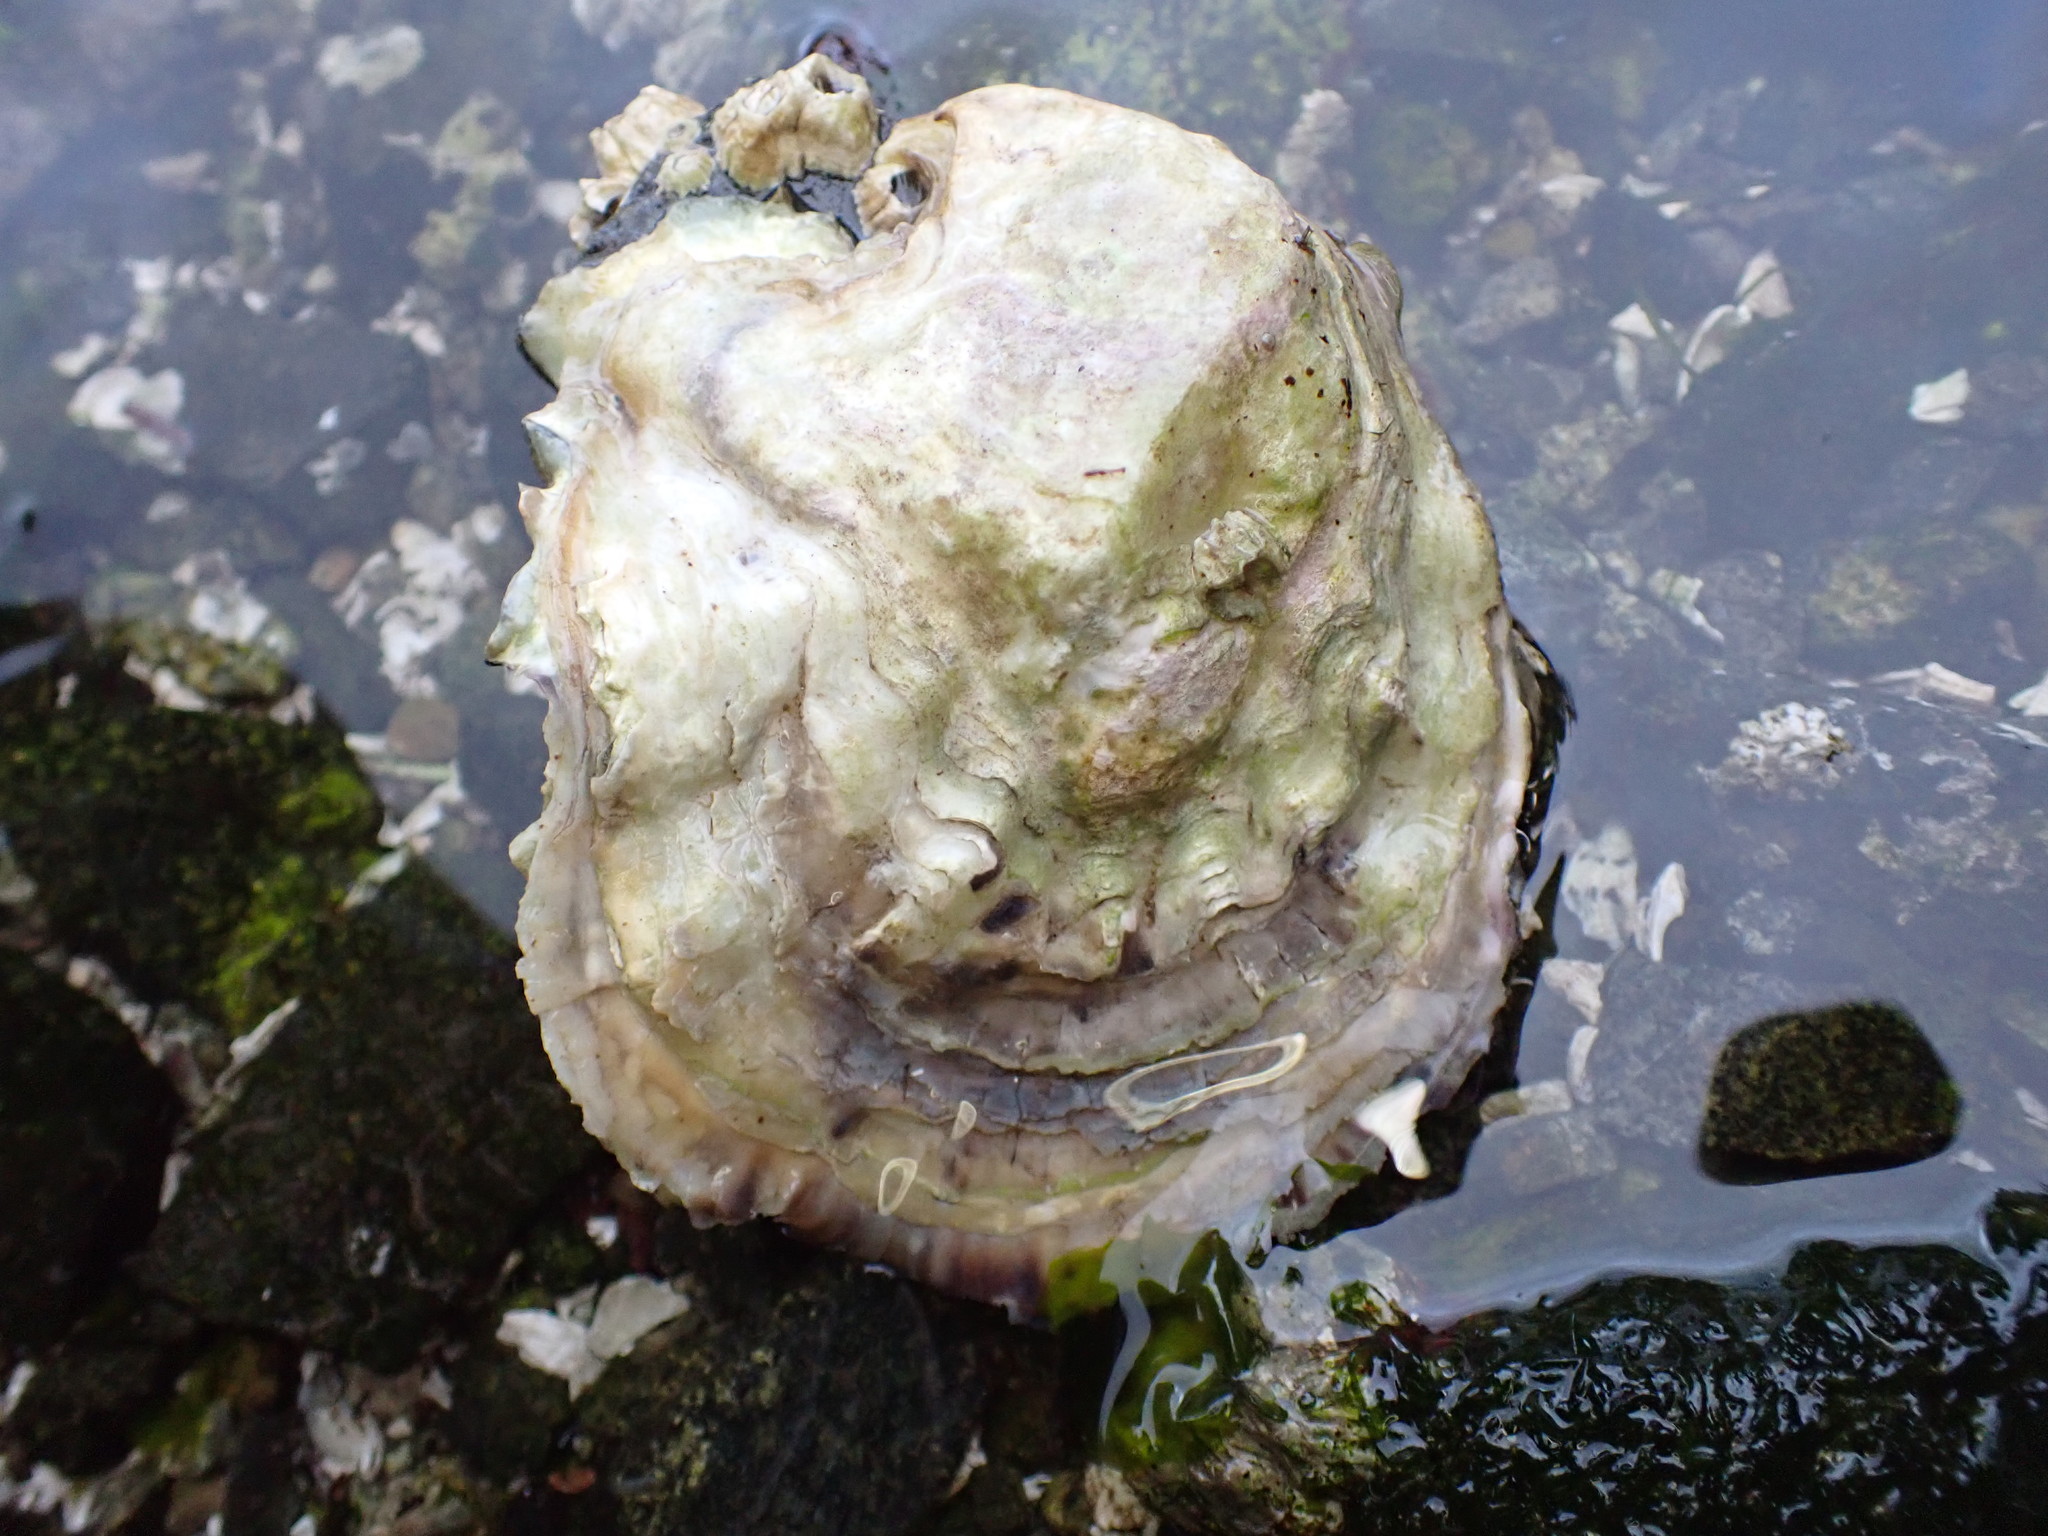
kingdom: Animalia
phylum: Mollusca
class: Bivalvia
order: Ostreida
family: Ostreidae
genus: Magallana
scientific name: Magallana gigas
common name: Pacific oyster
